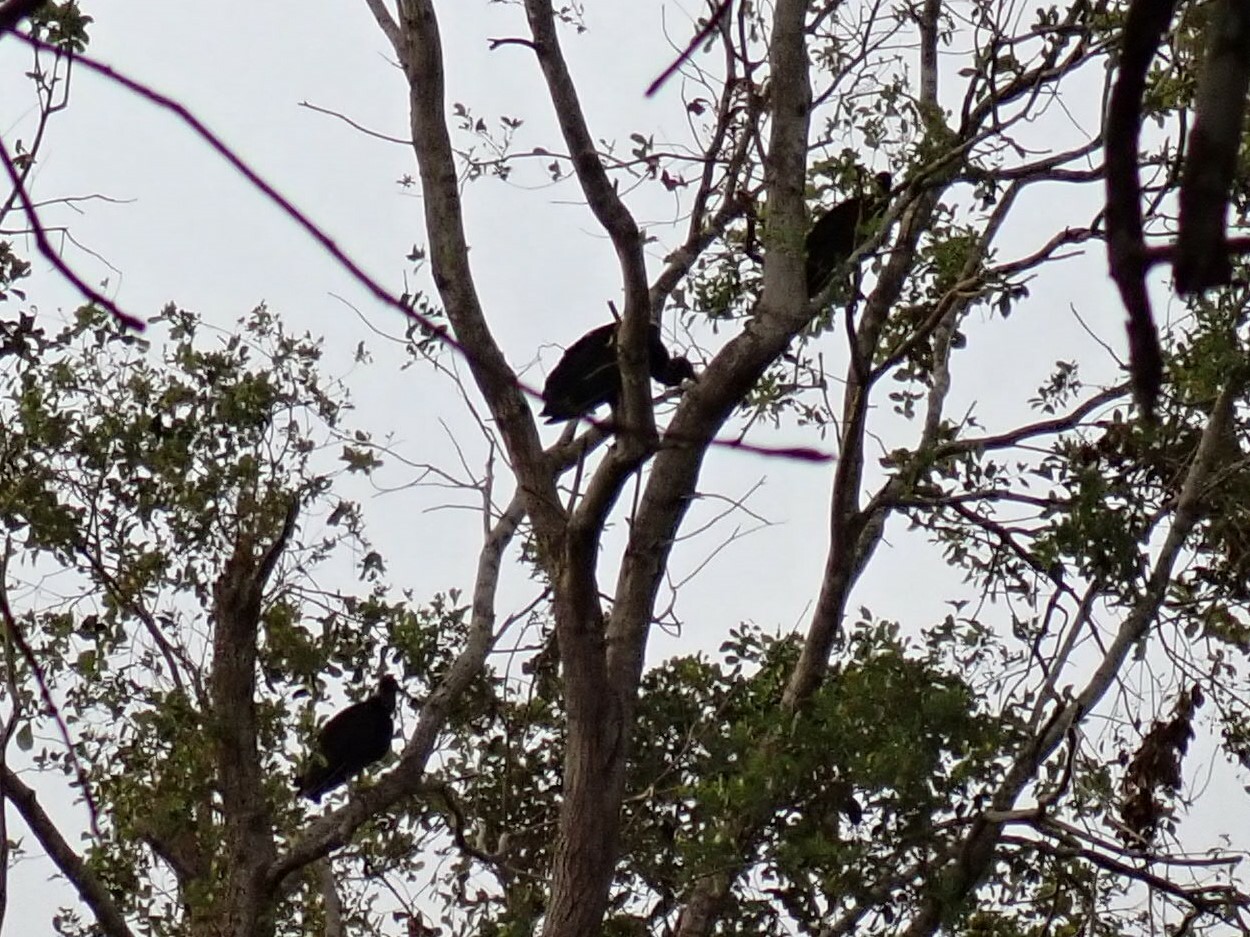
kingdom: Animalia
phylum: Chordata
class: Aves
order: Accipitriformes
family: Cathartidae
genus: Coragyps
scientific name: Coragyps atratus
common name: Black vulture
